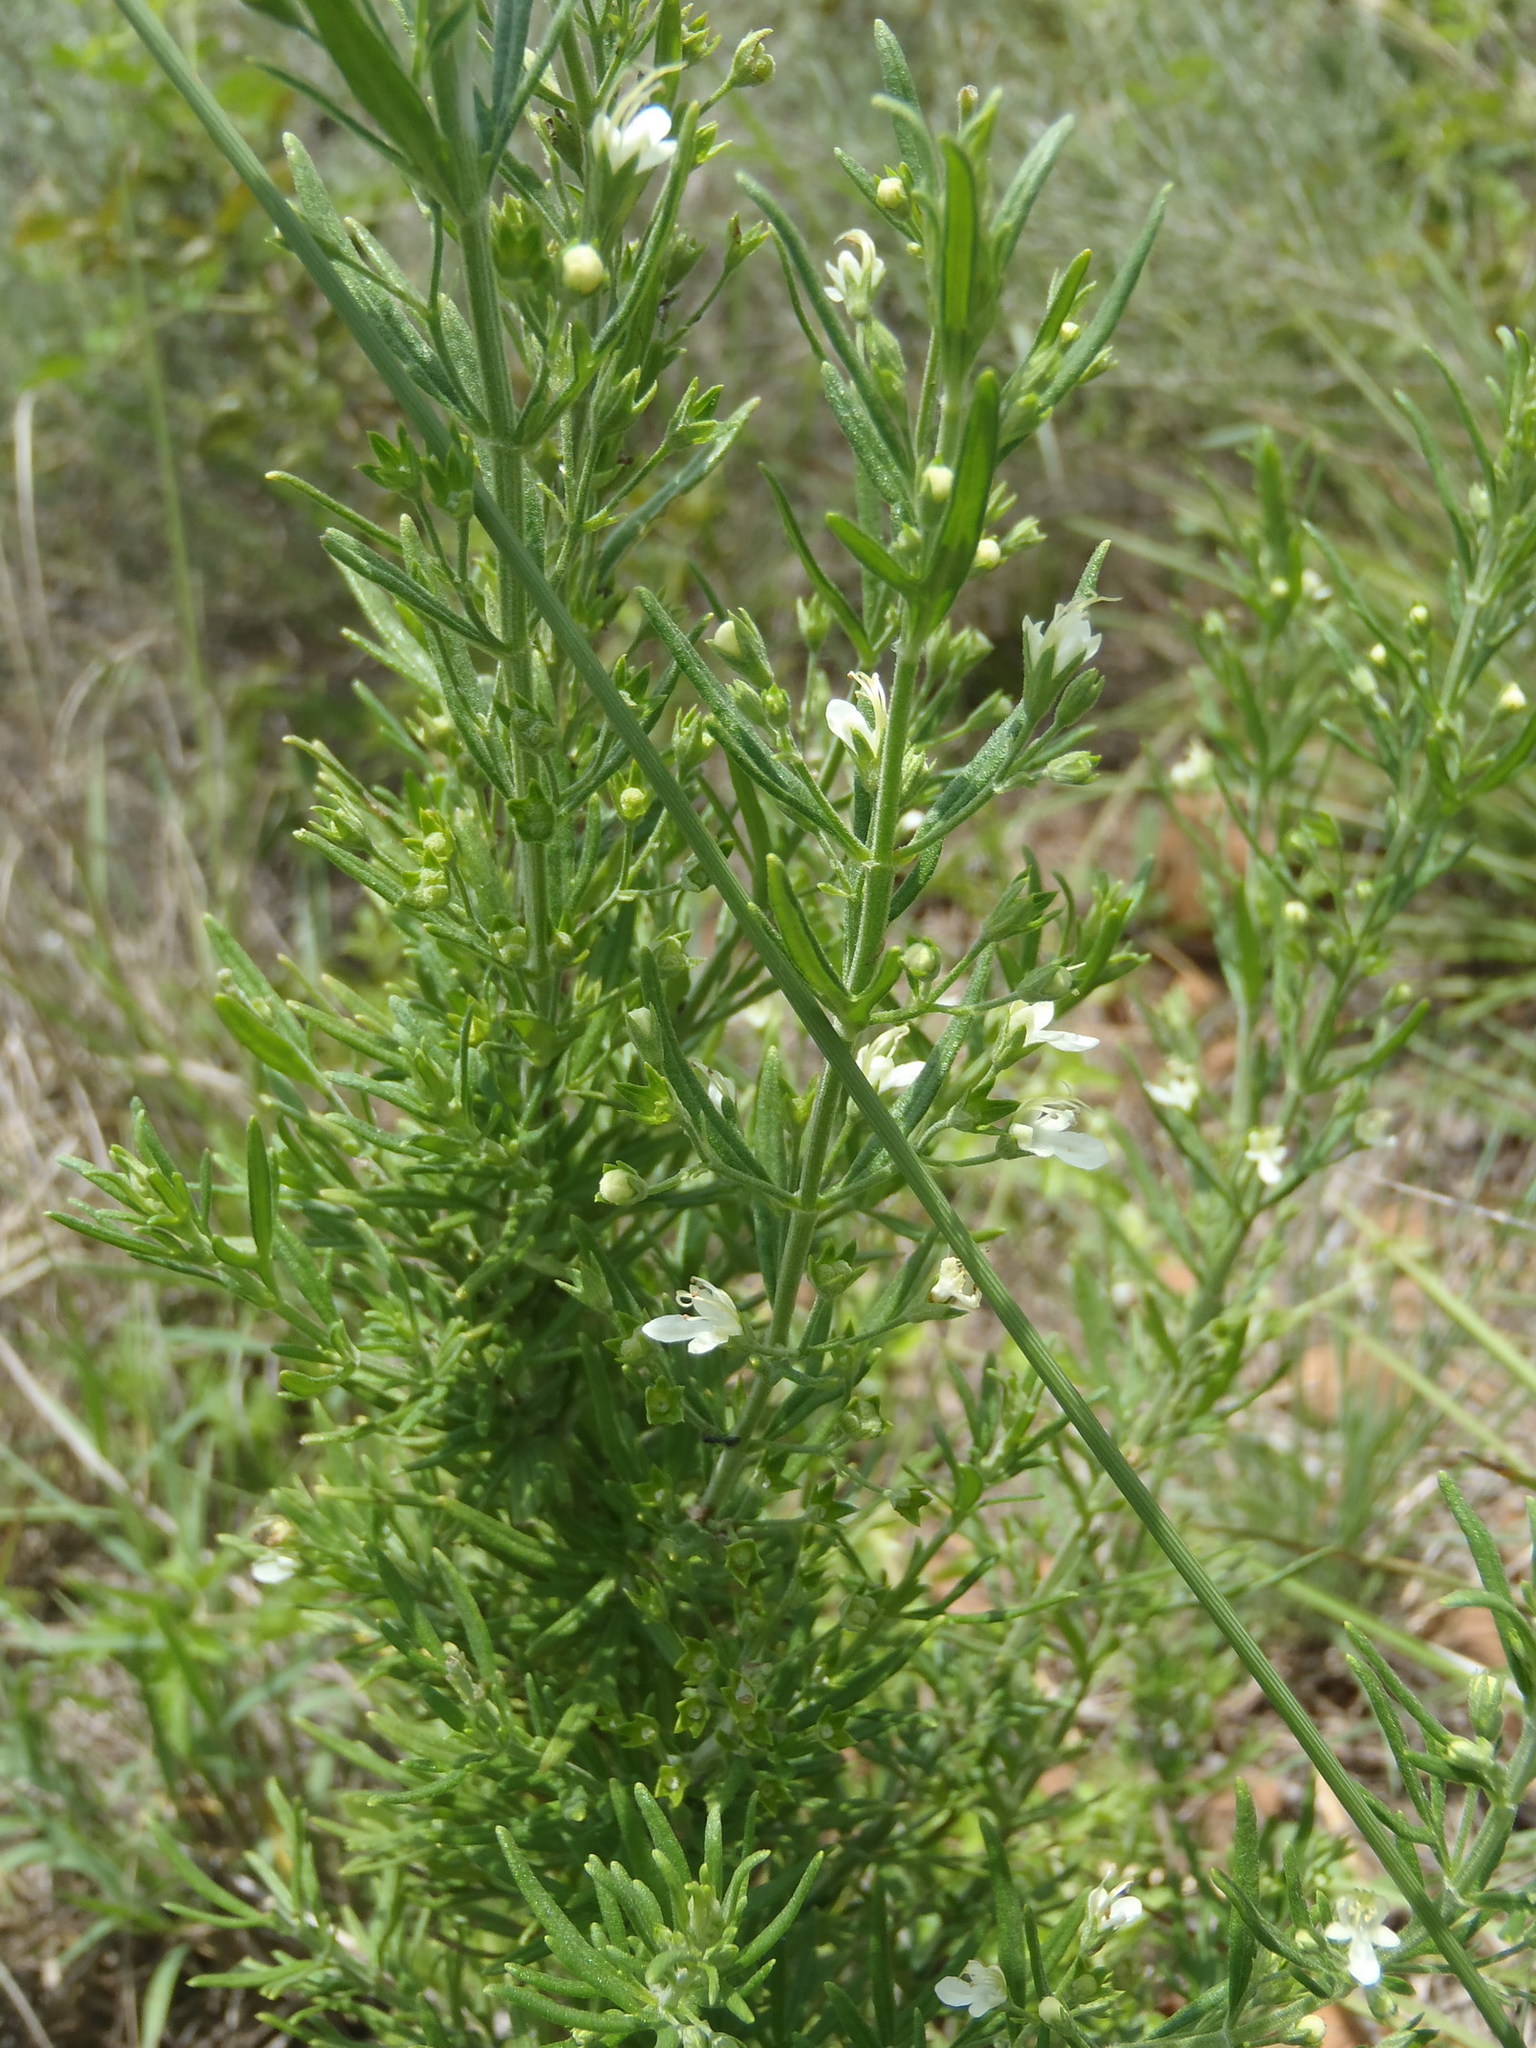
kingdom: Plantae
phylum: Tracheophyta
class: Magnoliopsida
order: Lamiales
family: Lamiaceae
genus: Teucrium
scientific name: Teucrium trifidum
